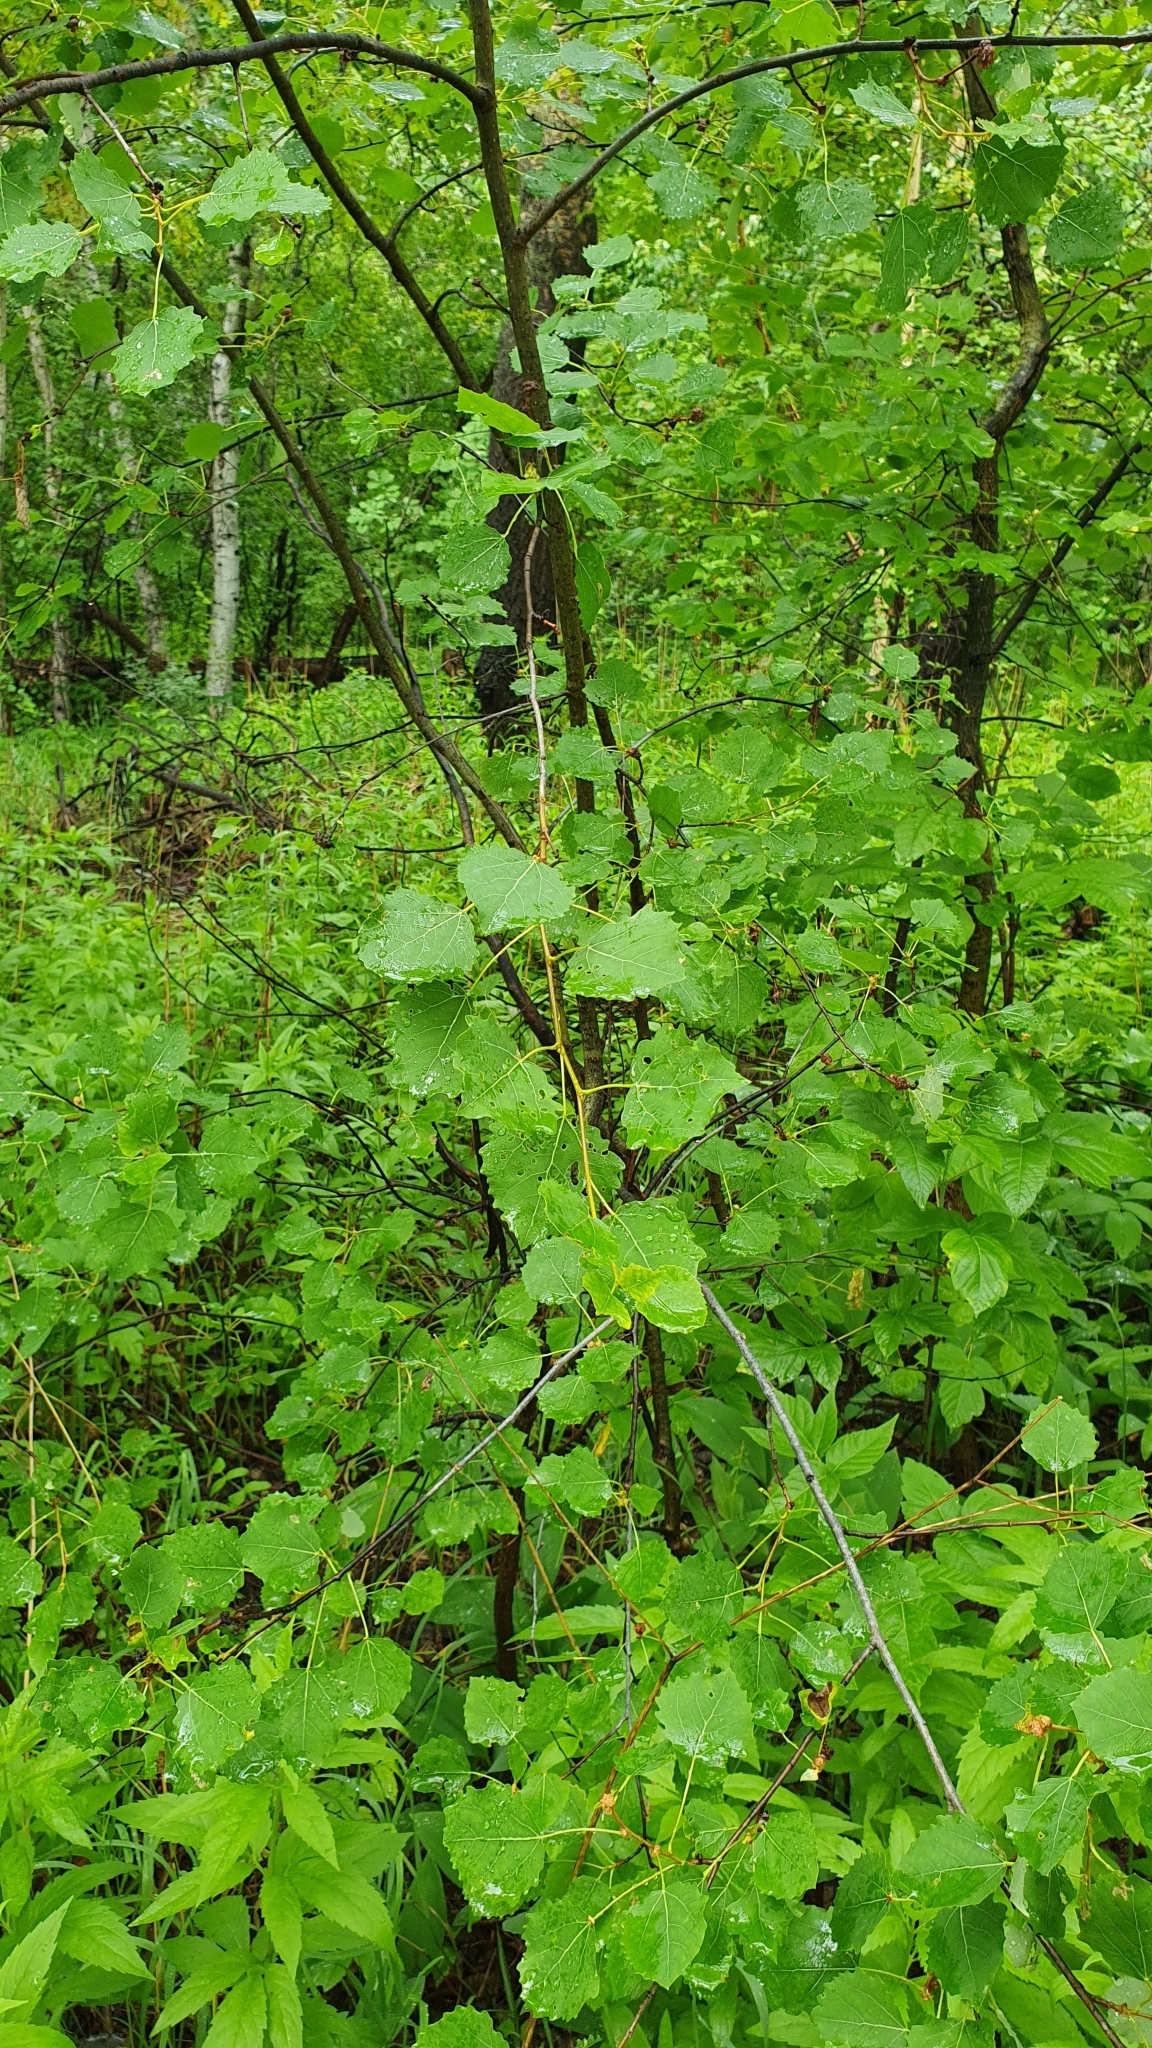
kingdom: Plantae
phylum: Tracheophyta
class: Magnoliopsida
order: Malpighiales
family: Salicaceae
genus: Populus
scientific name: Populus tremula
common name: European aspen
